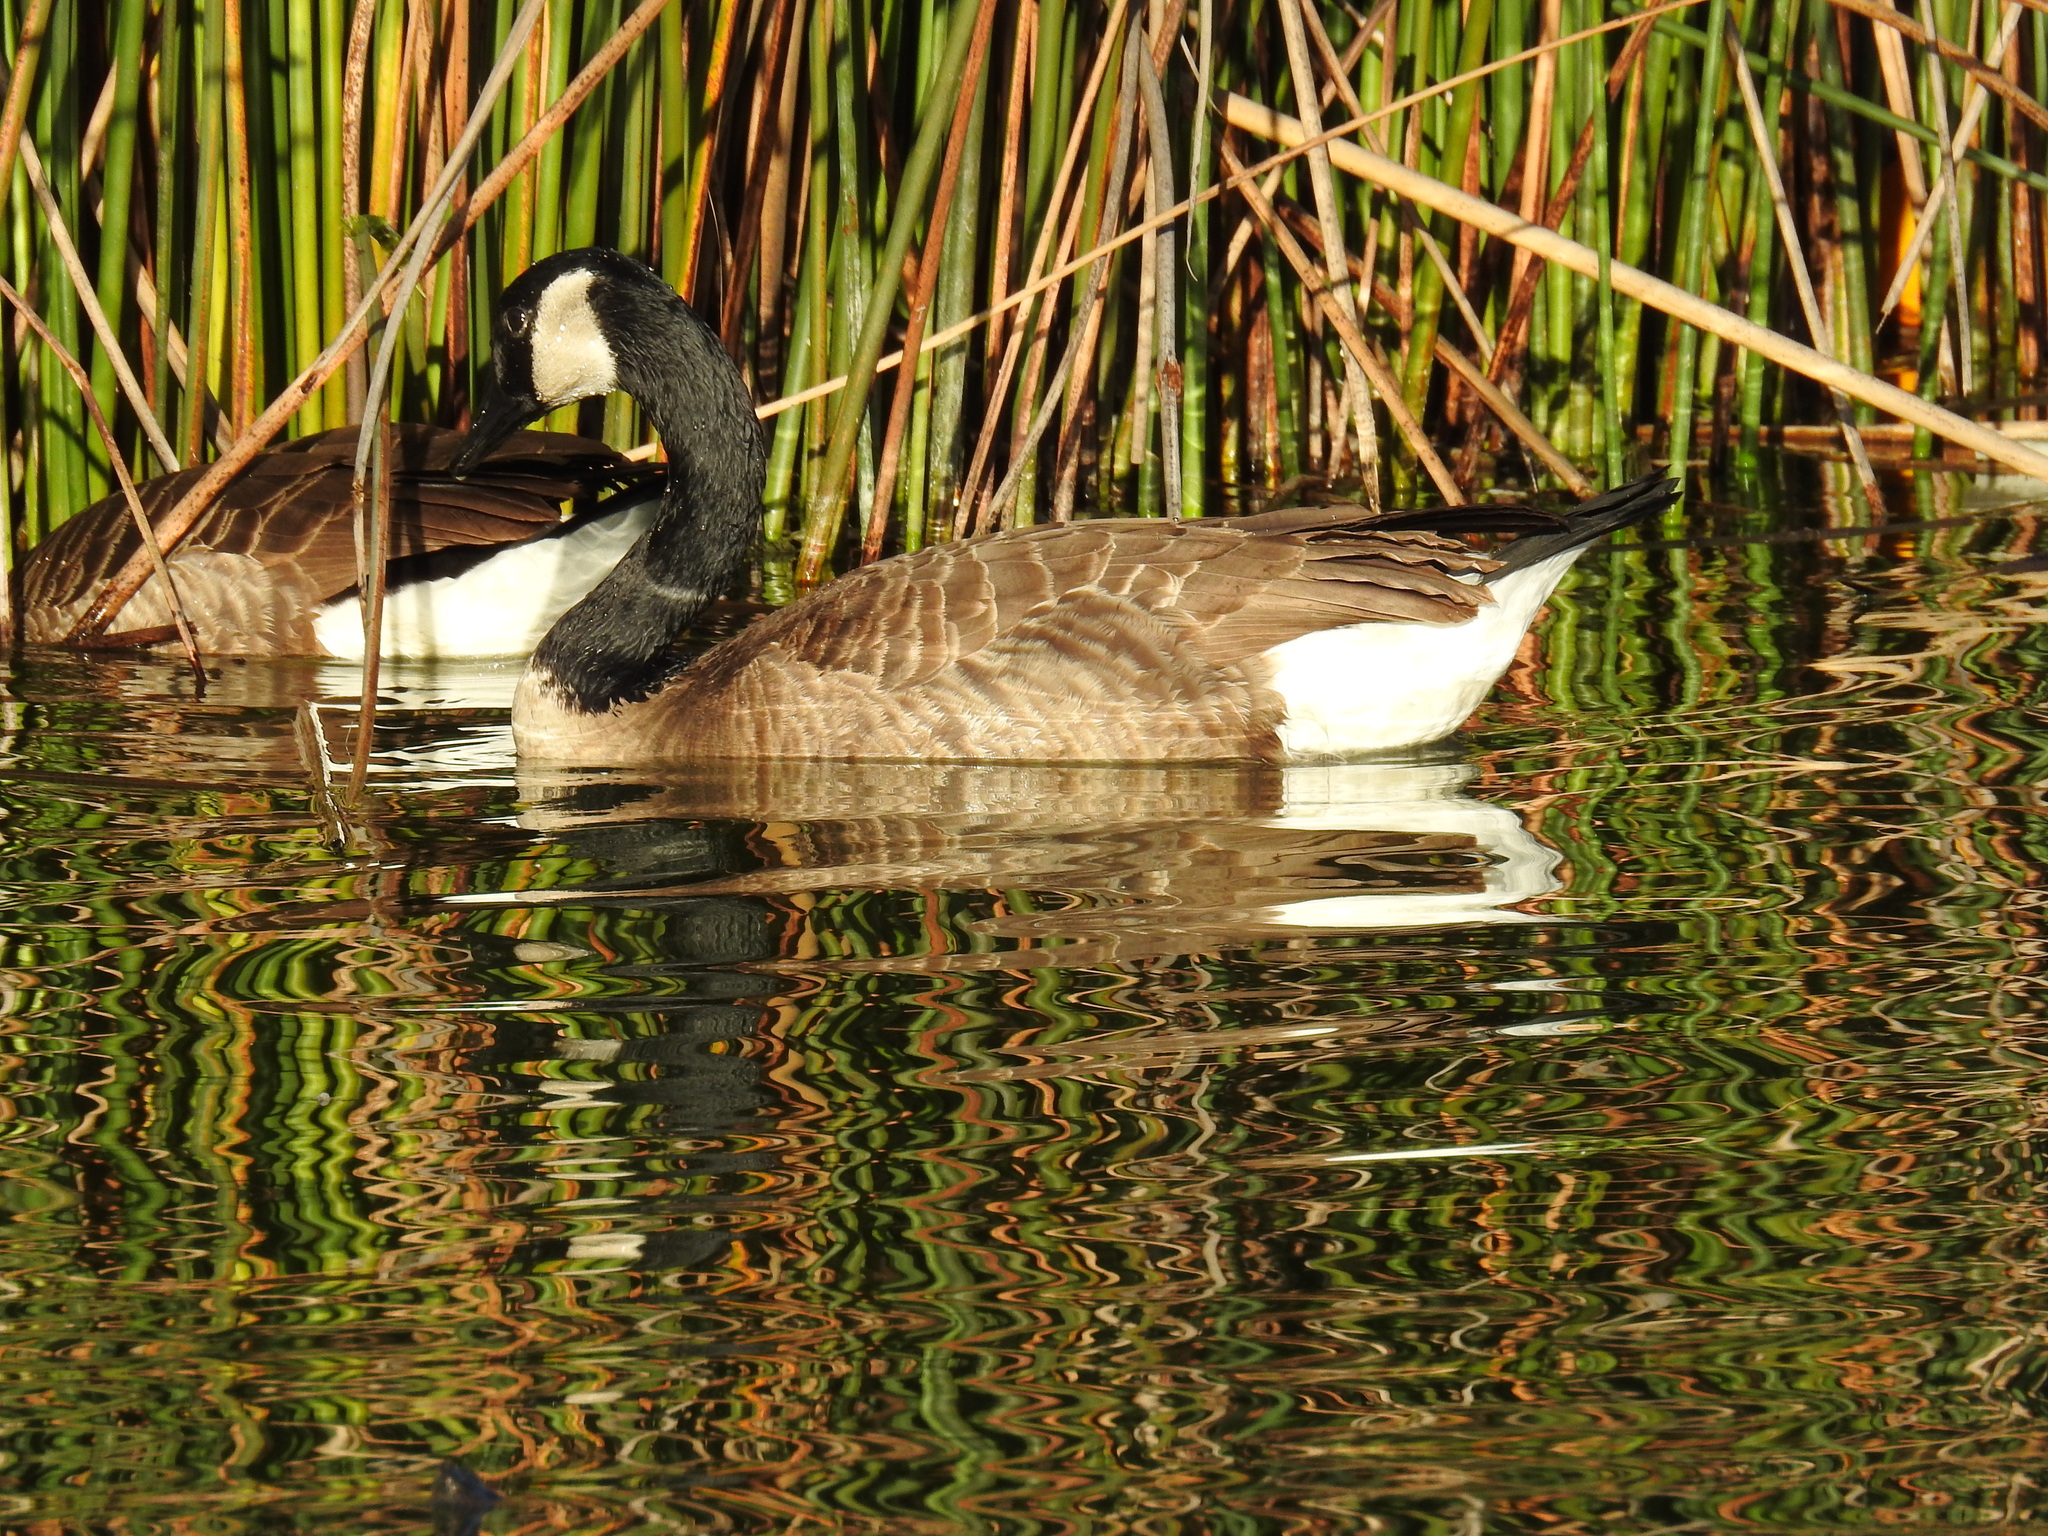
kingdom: Animalia
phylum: Chordata
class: Aves
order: Anseriformes
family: Anatidae
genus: Branta
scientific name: Branta canadensis
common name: Canada goose
